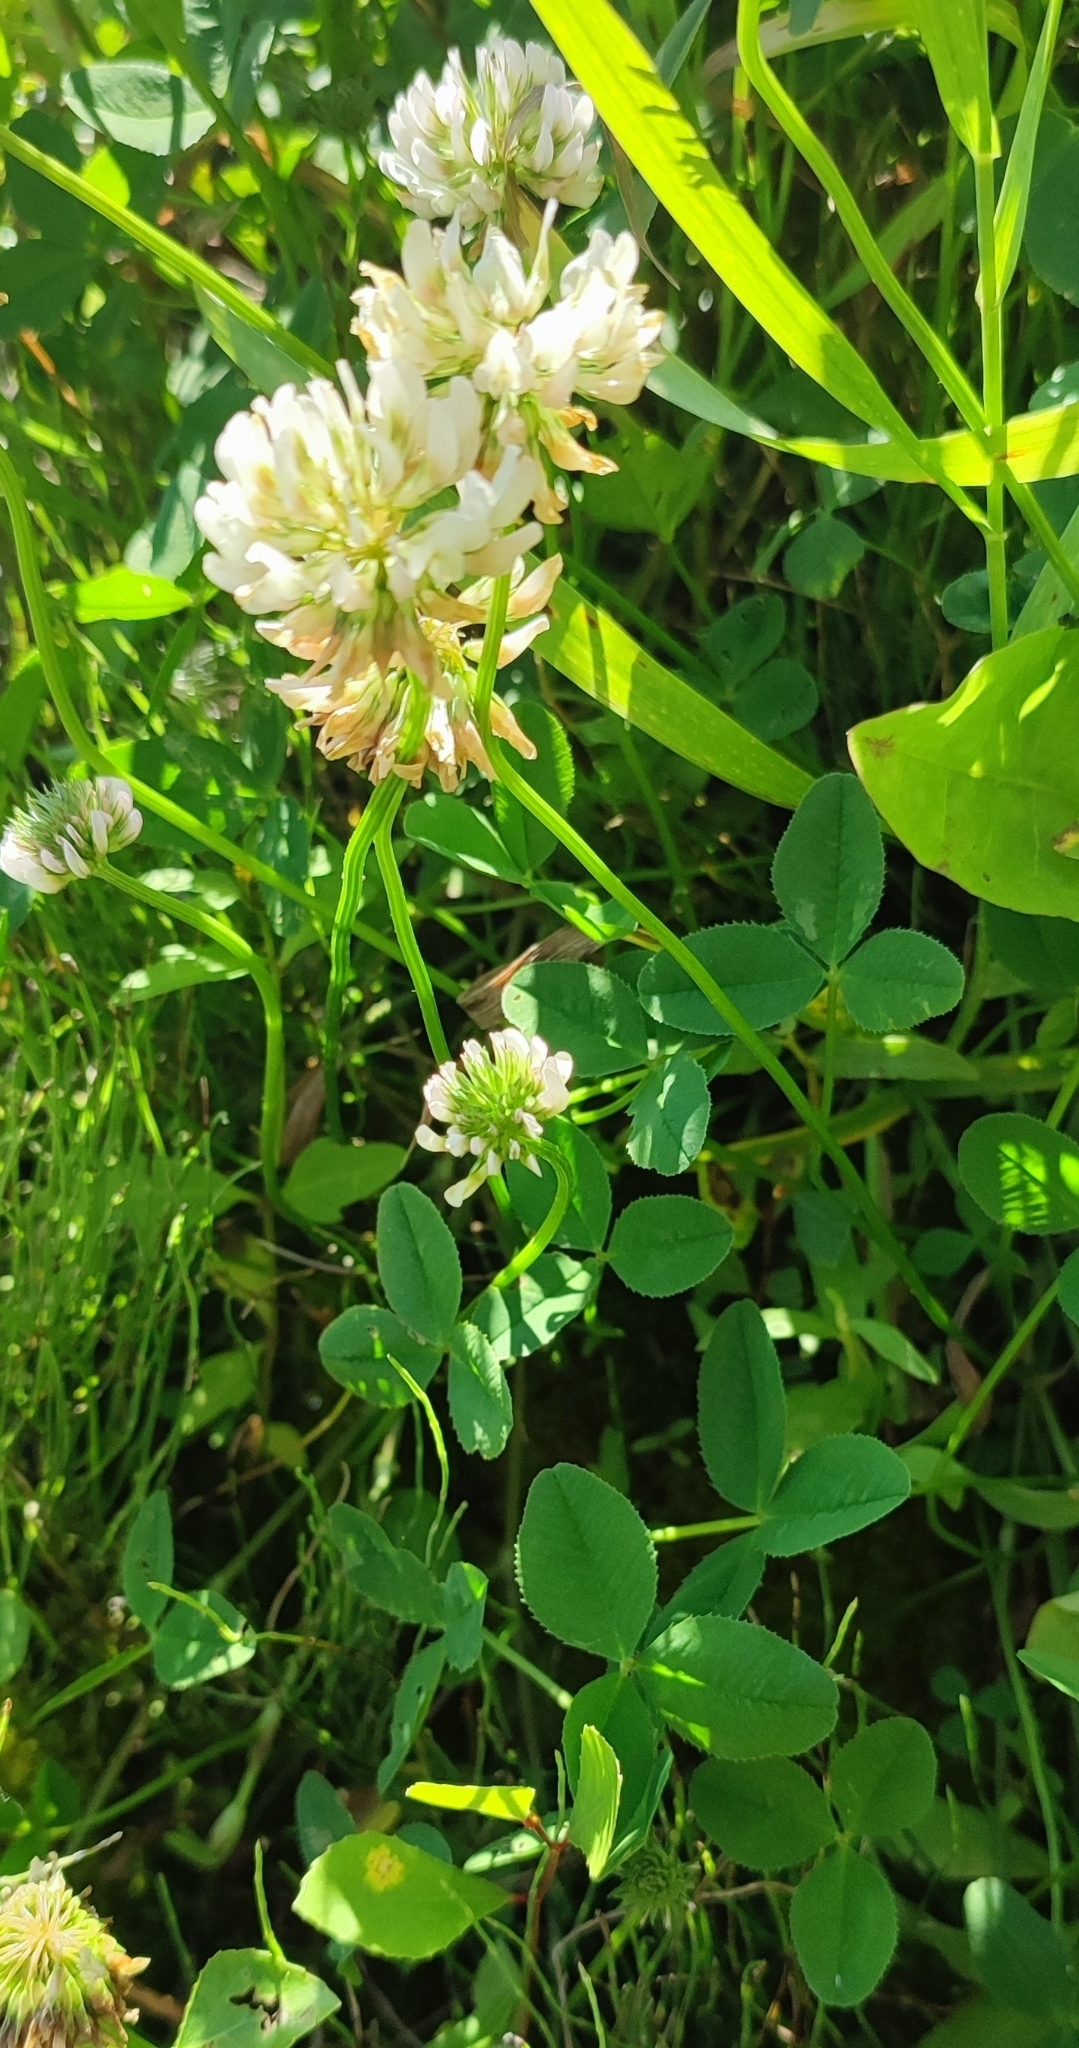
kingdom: Plantae
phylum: Tracheophyta
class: Magnoliopsida
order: Fabales
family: Fabaceae
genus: Trifolium
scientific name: Trifolium repens
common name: White clover
